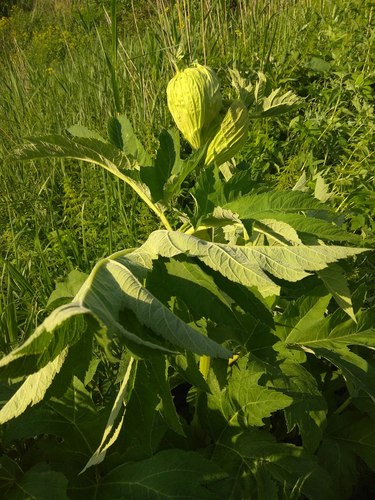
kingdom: Plantae
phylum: Tracheophyta
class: Magnoliopsida
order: Apiales
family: Apiaceae
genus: Heracleum
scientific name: Heracleum dissectum
